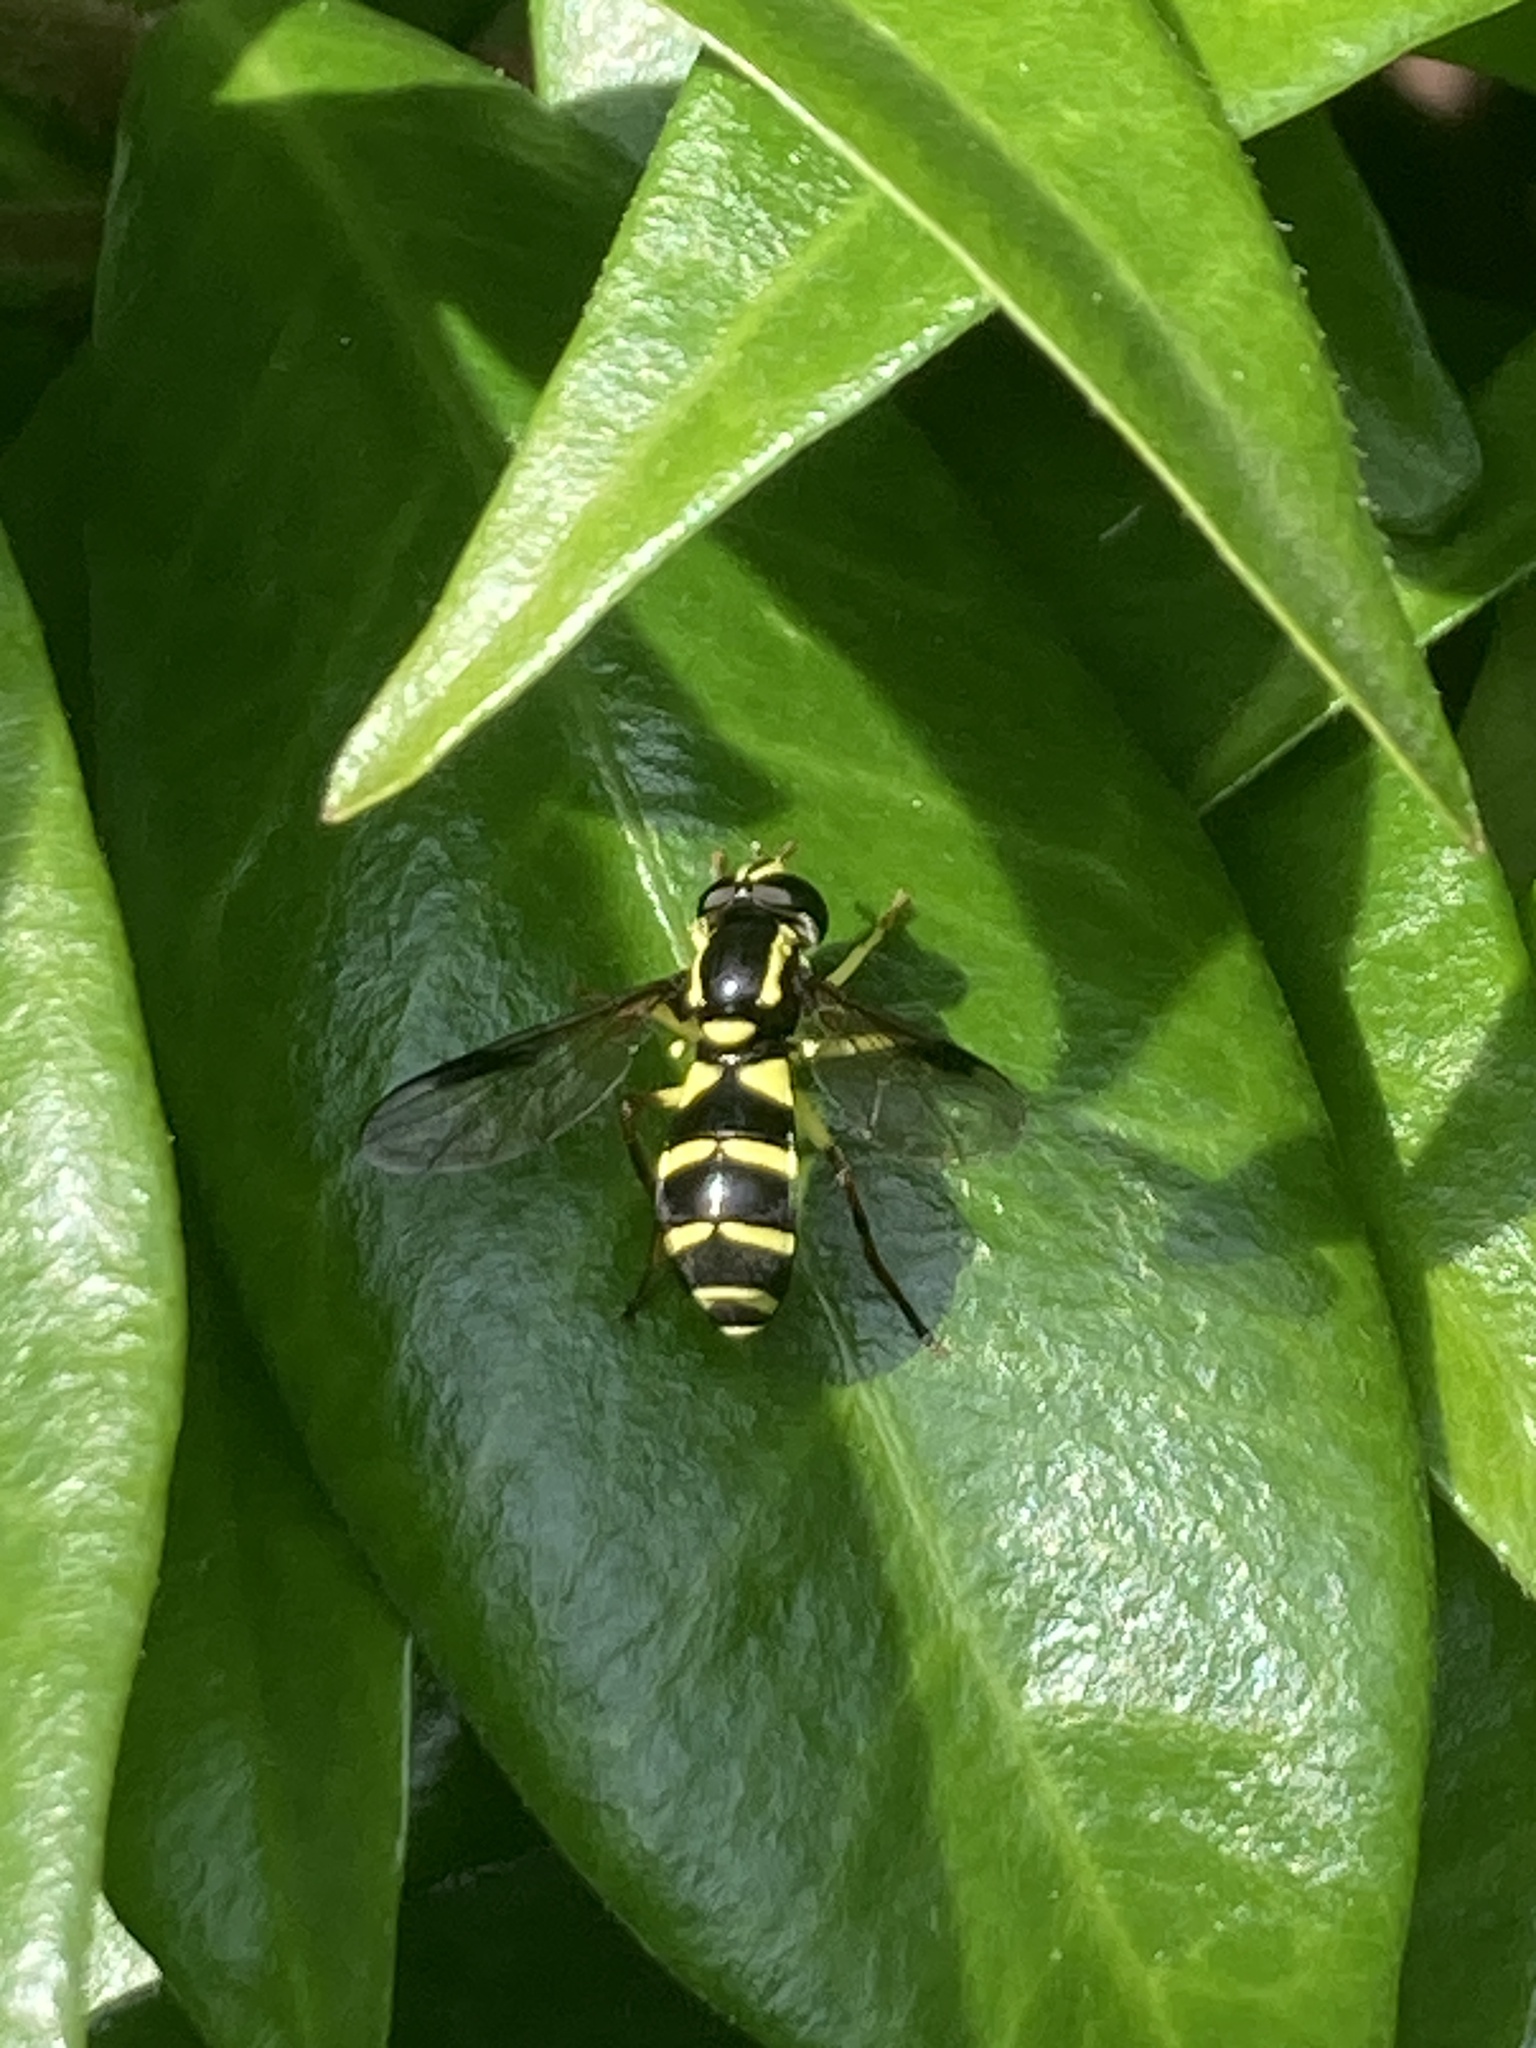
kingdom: Animalia
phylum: Arthropoda
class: Insecta
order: Diptera
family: Syrphidae
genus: Philhelius
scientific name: Philhelius pedissequum
